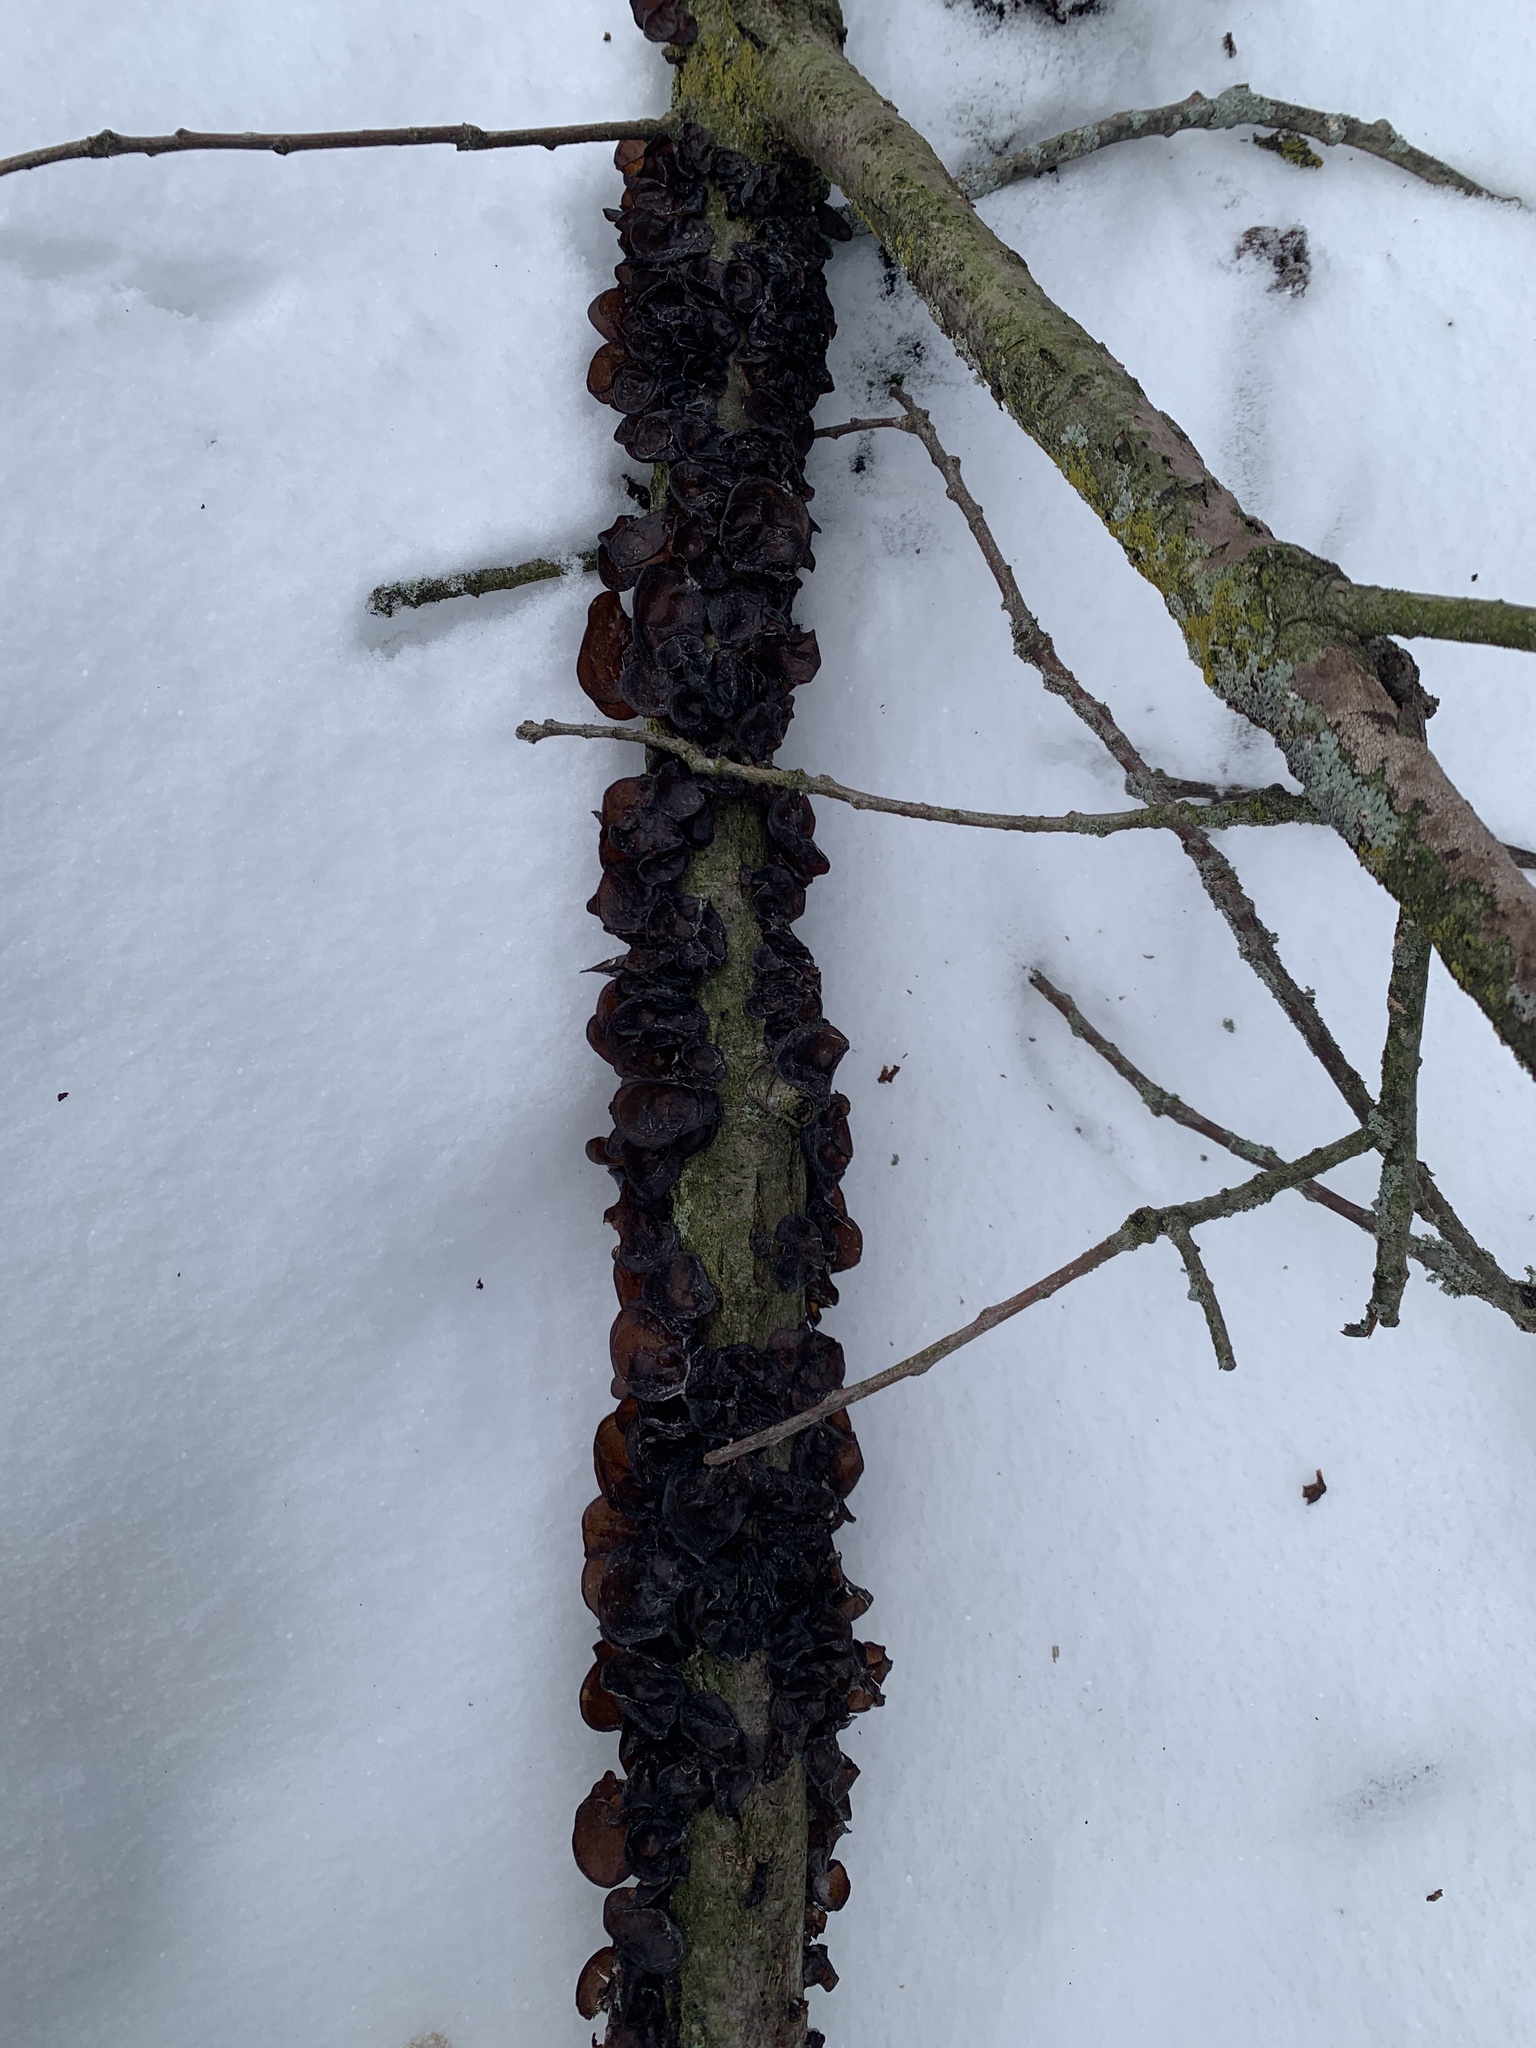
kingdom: Fungi
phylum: Basidiomycota
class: Agaricomycetes
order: Auriculariales
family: Auriculariaceae
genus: Exidia
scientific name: Exidia
